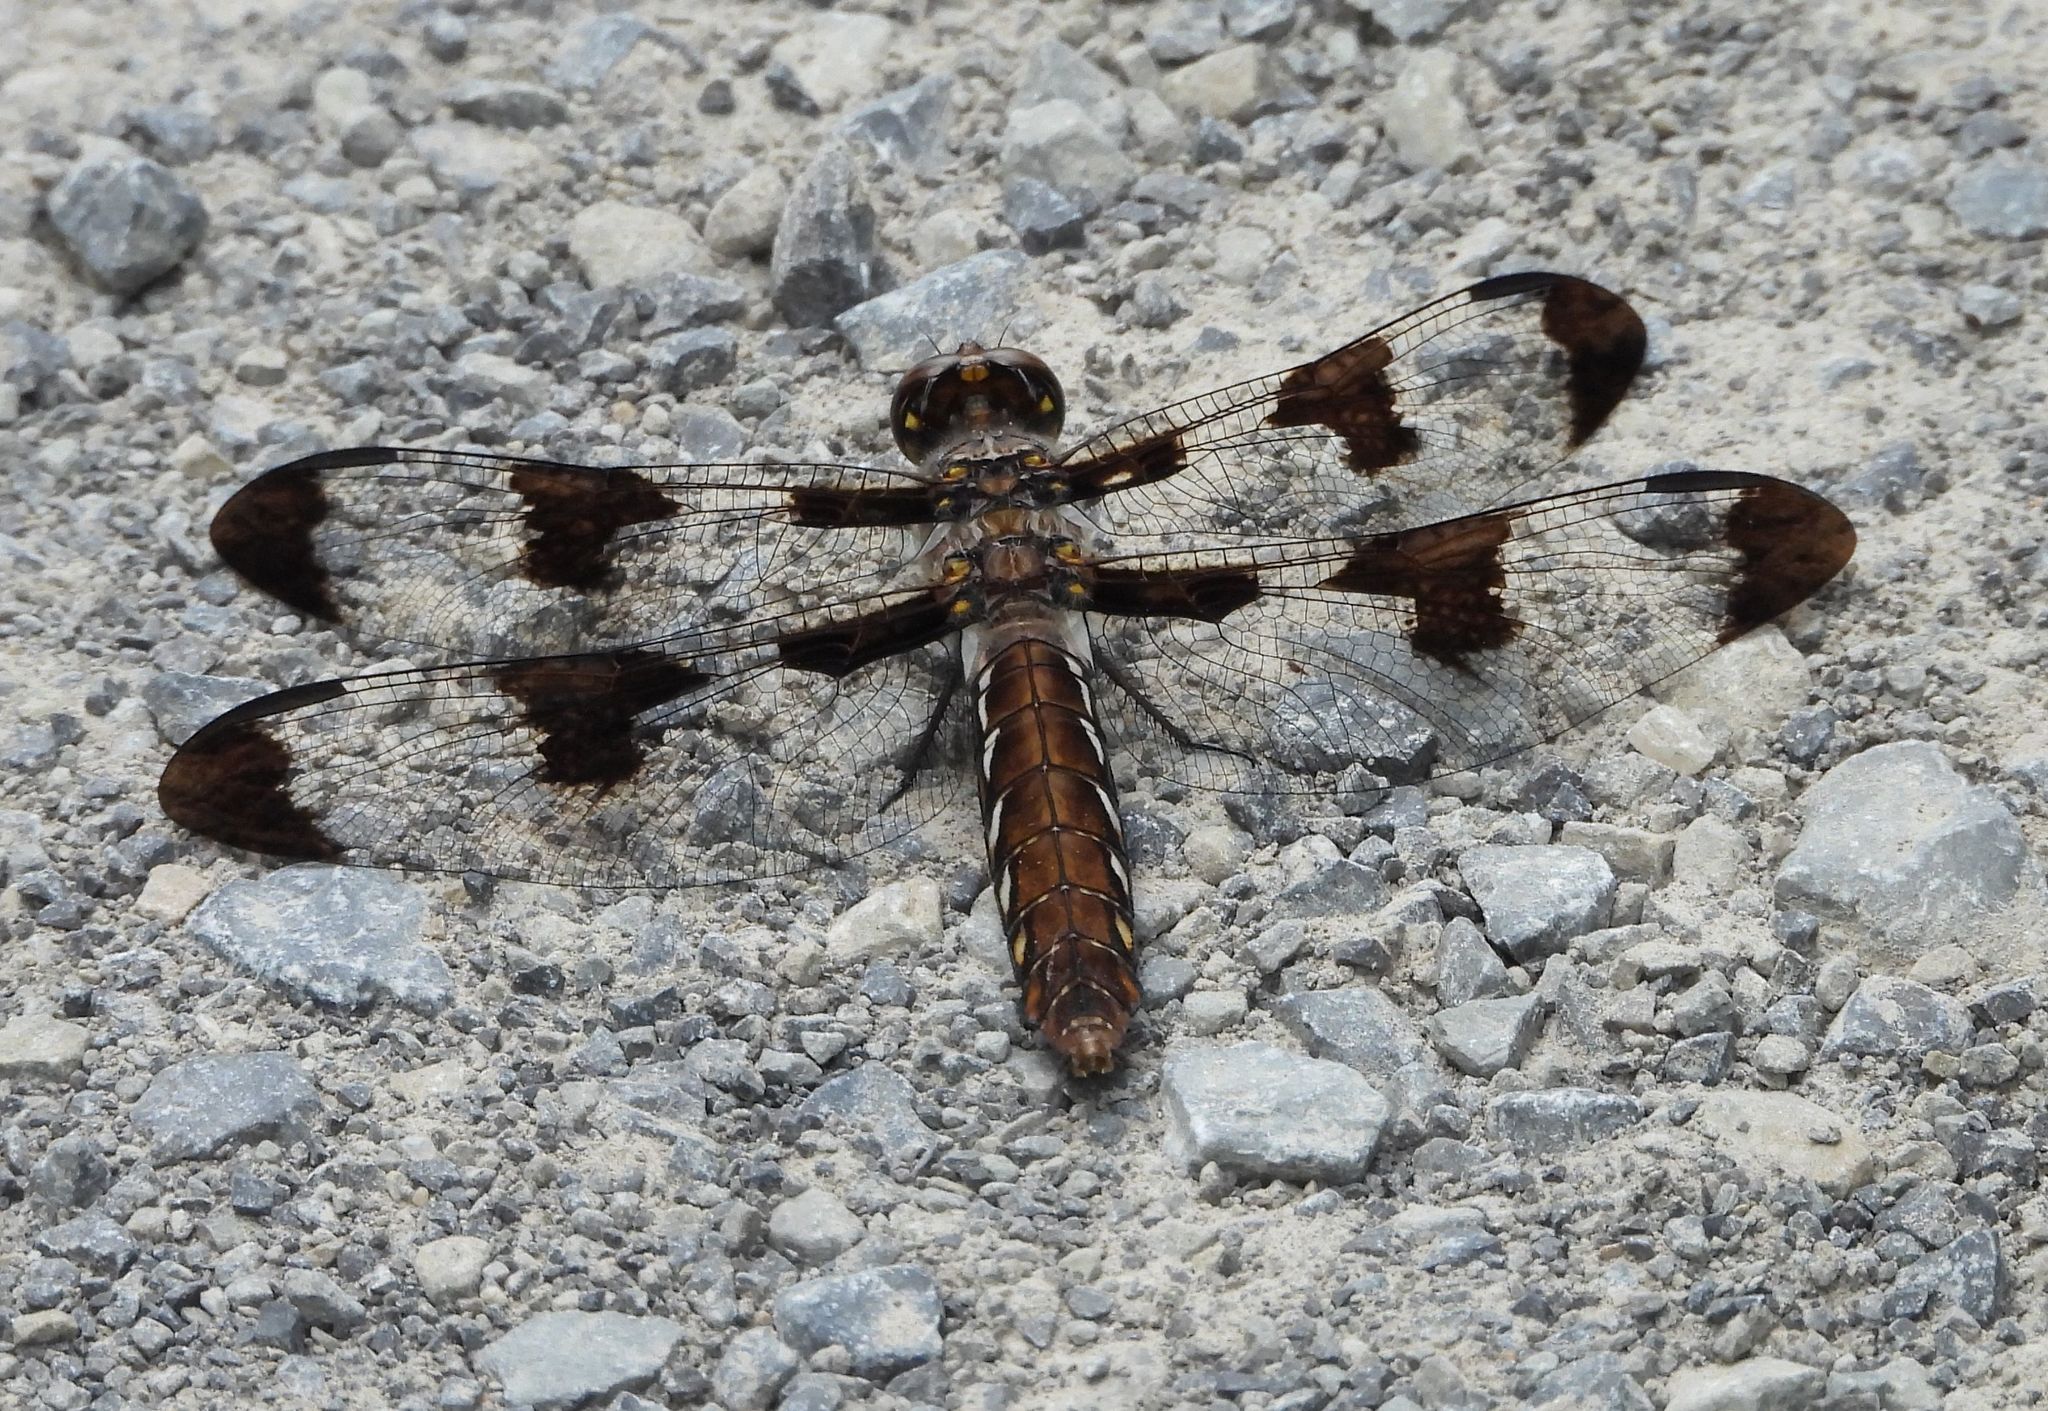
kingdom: Animalia
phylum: Arthropoda
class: Insecta
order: Odonata
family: Libellulidae
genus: Plathemis
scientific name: Plathemis lydia
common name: Common whitetail
